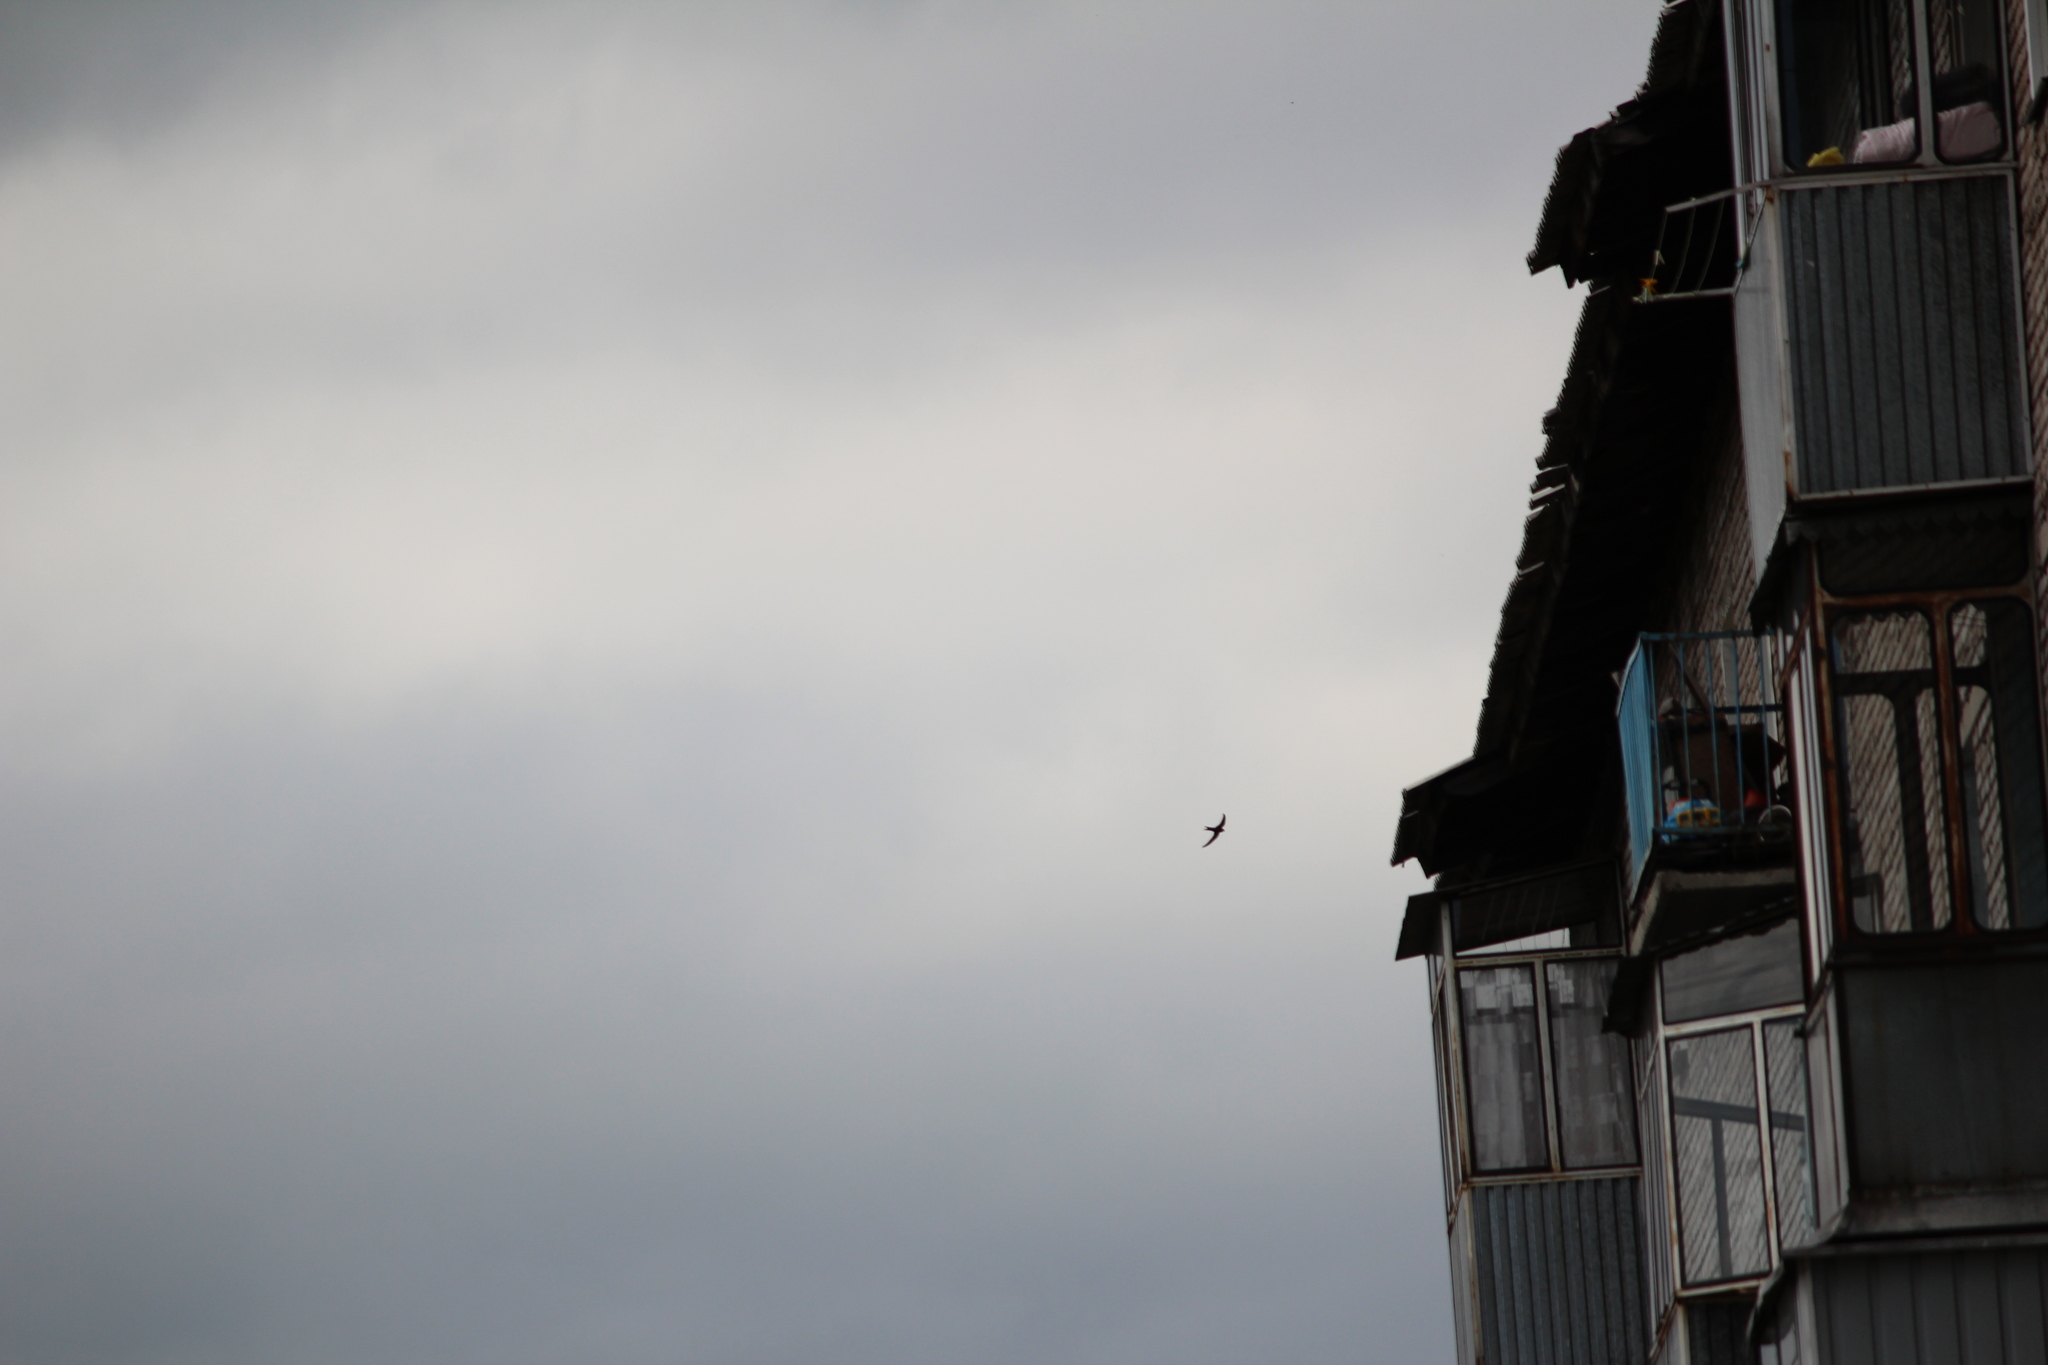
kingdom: Animalia
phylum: Chordata
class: Aves
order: Apodiformes
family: Apodidae
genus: Apus
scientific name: Apus pacificus
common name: Pacific swift
